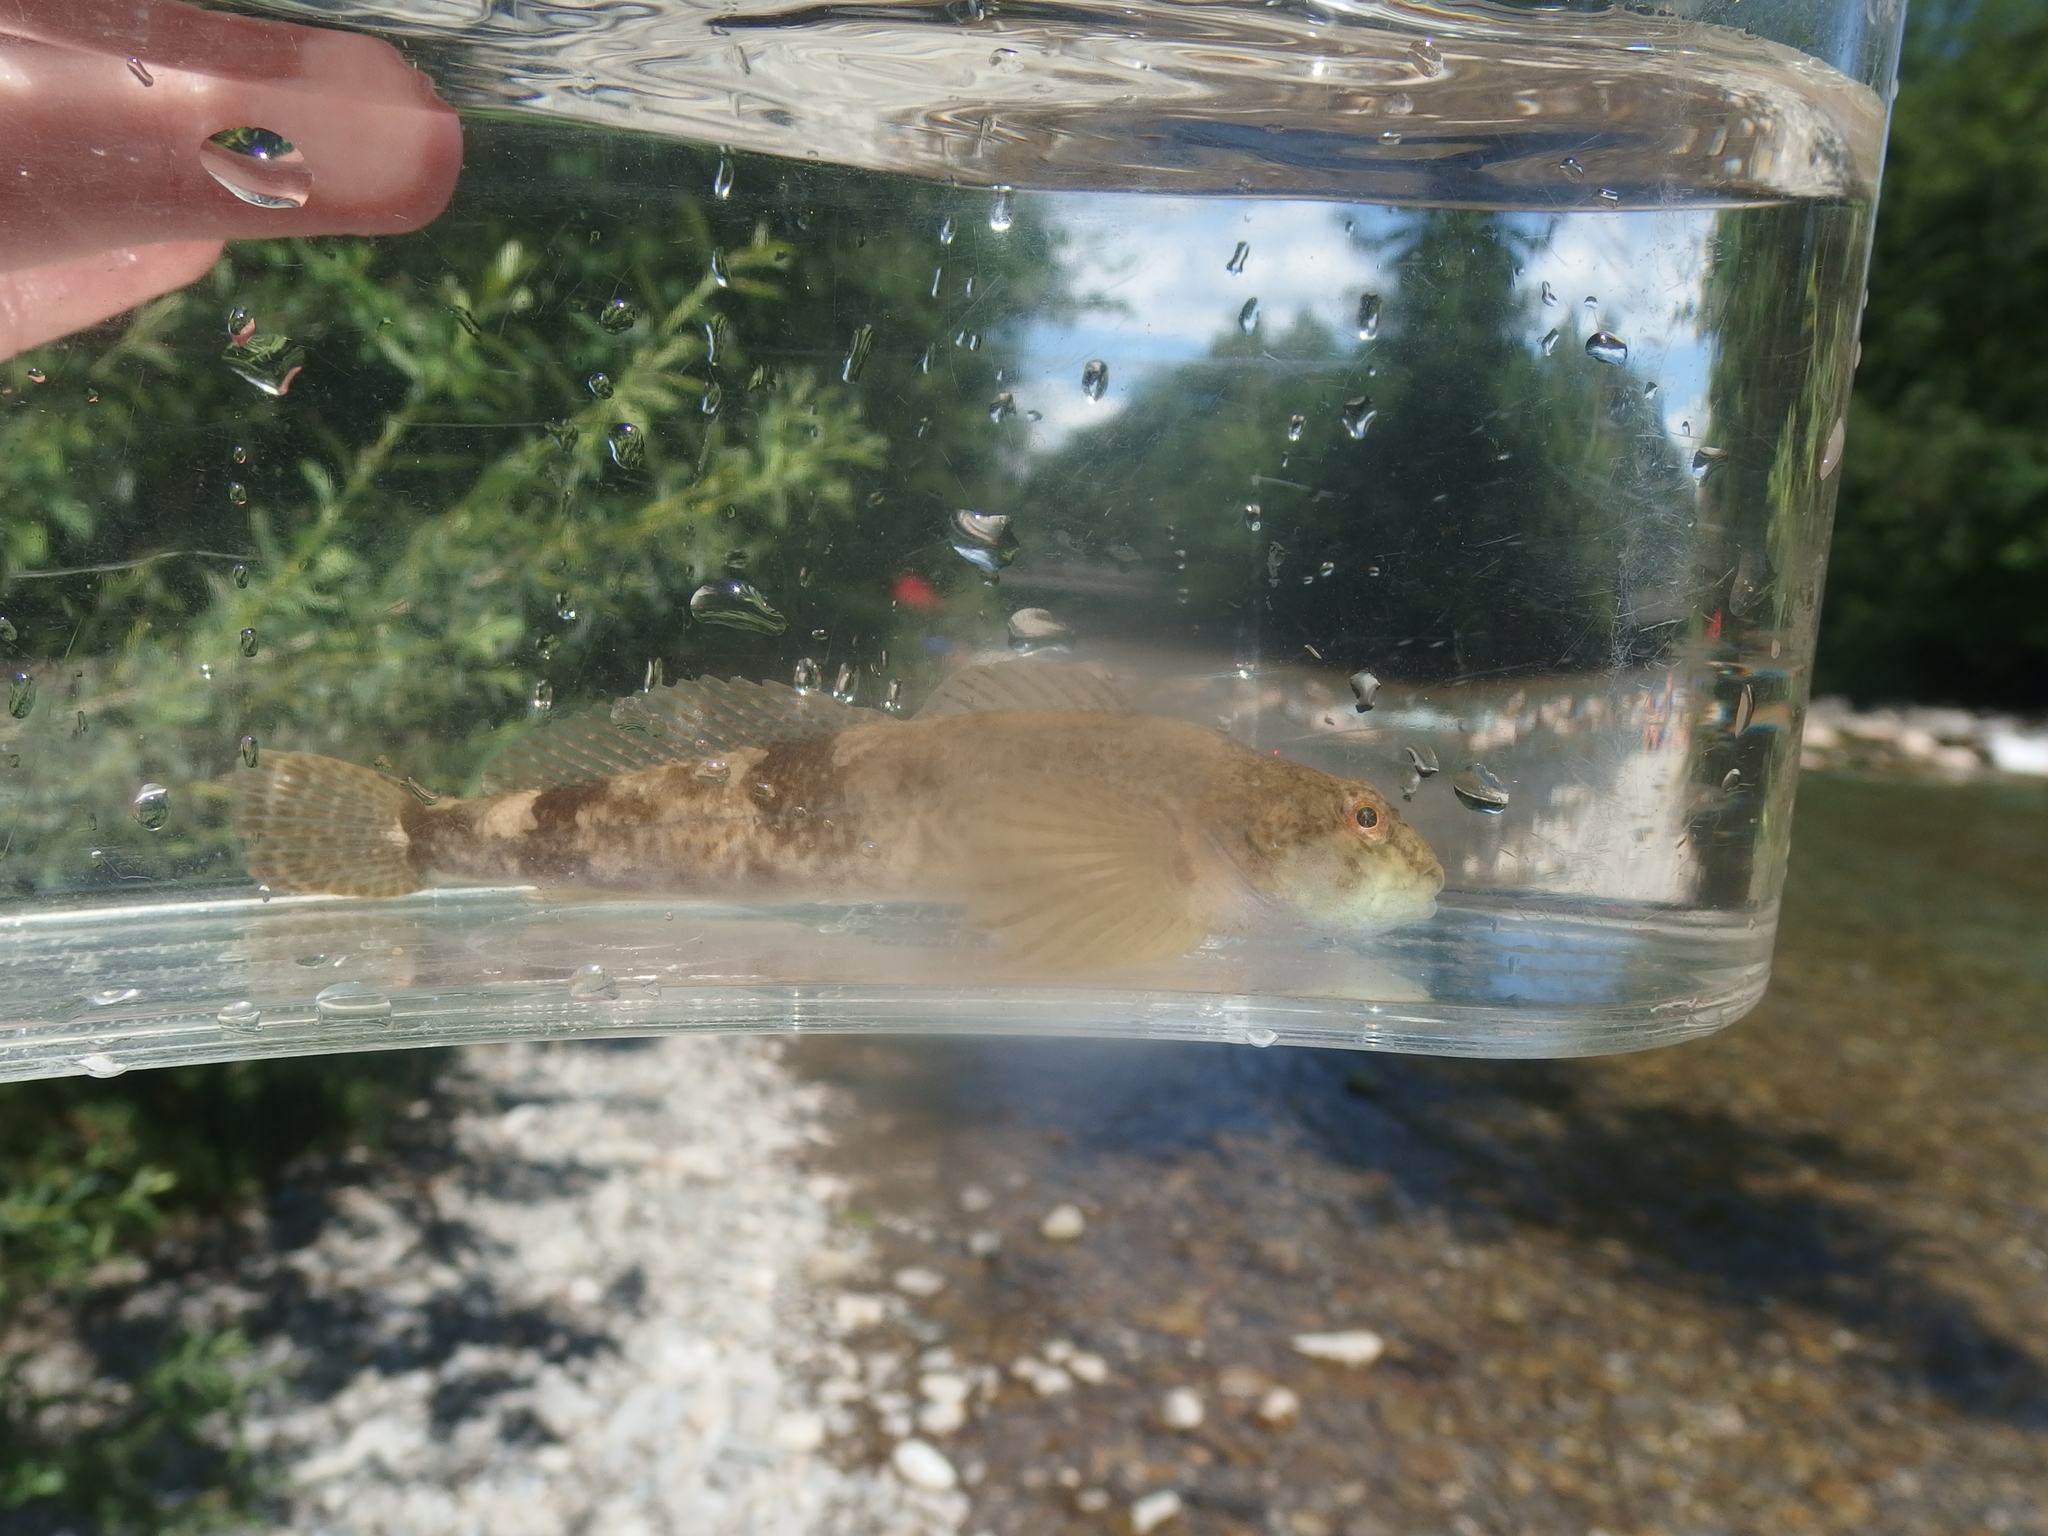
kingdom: Animalia
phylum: Chordata
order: Scorpaeniformes
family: Cottidae
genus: Cottus
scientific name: Cottus gobio
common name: Bullhead
